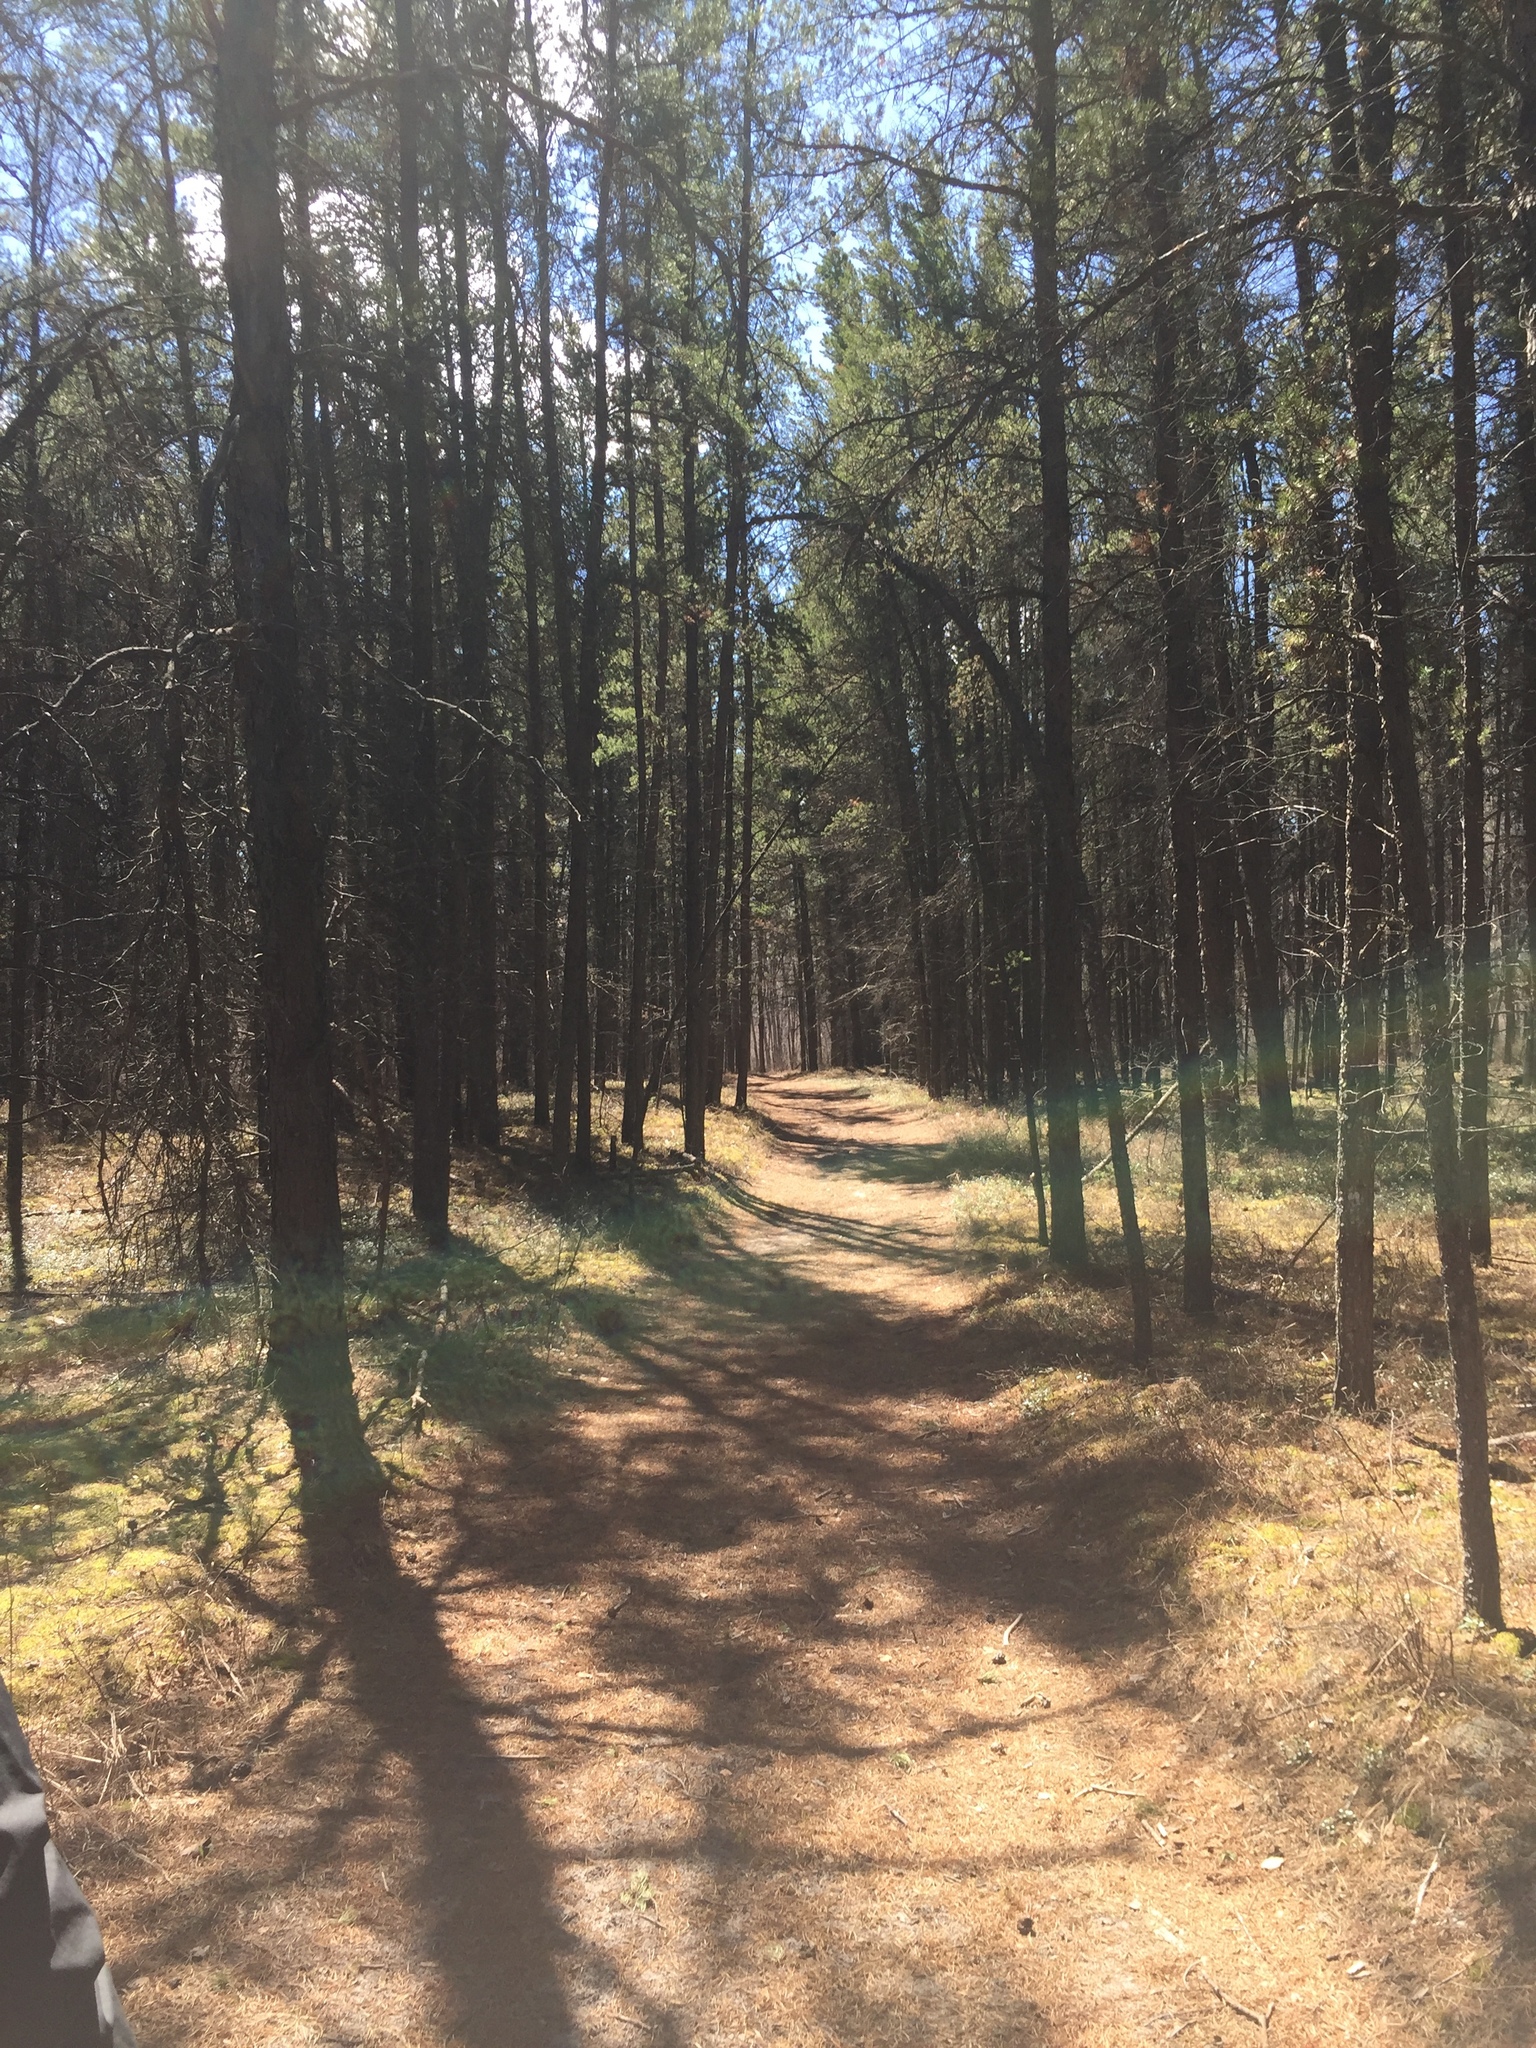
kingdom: Plantae
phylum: Tracheophyta
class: Pinopsida
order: Pinales
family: Pinaceae
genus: Pinus
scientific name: Pinus banksiana
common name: Jack pine
